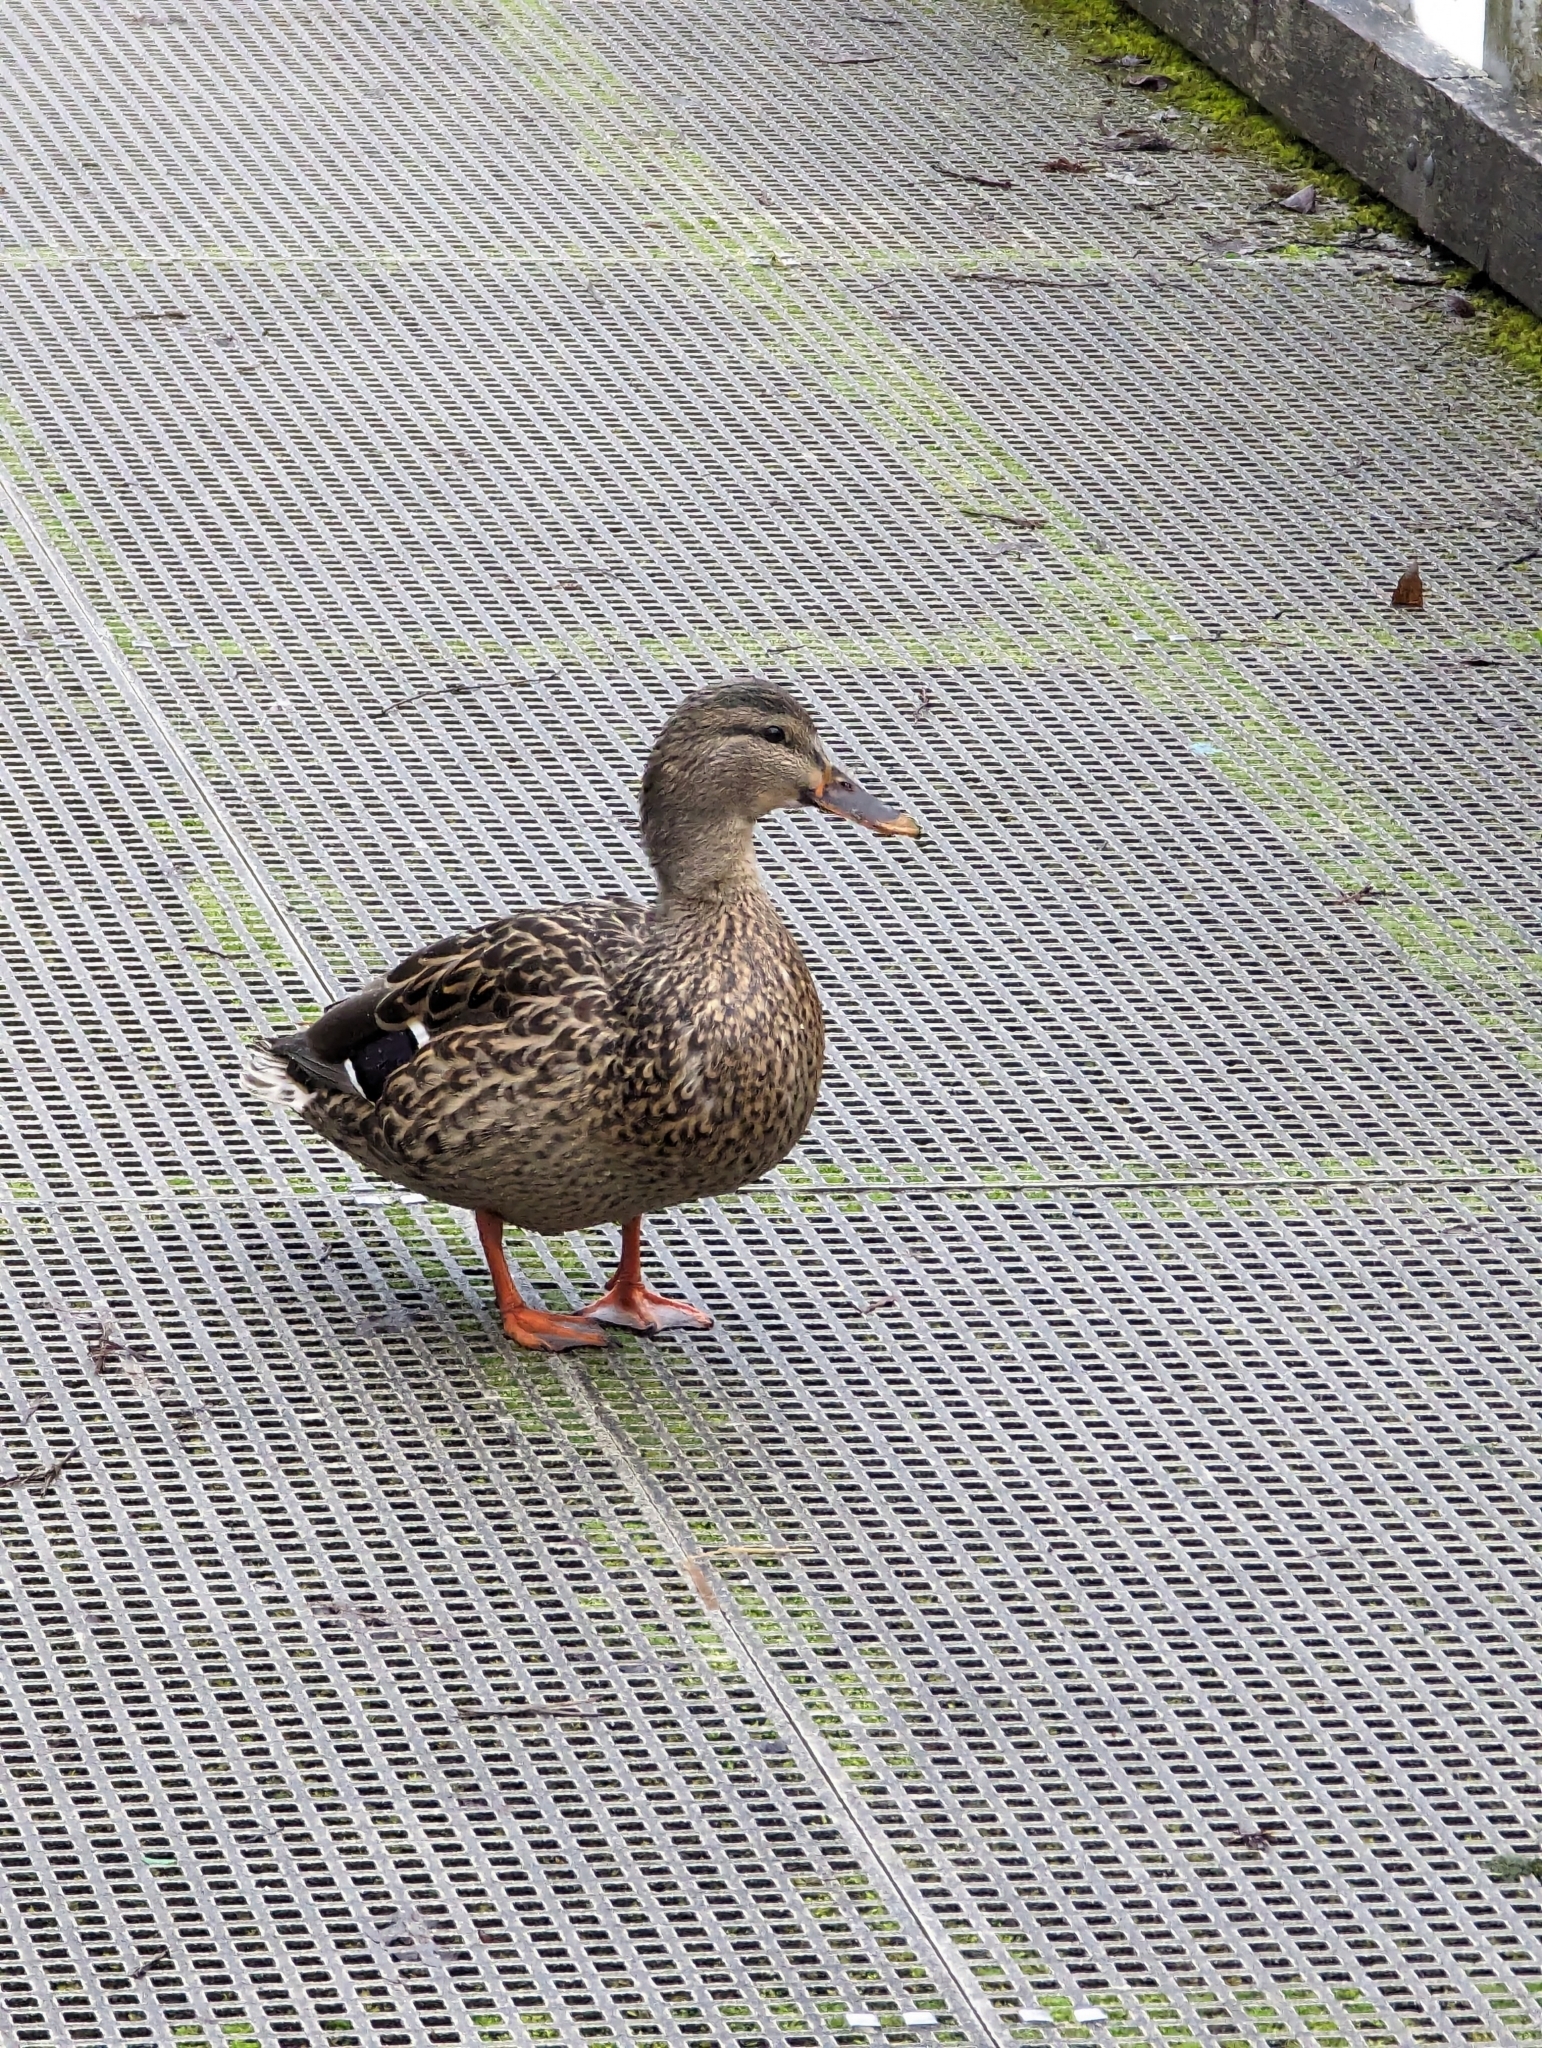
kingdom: Animalia
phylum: Chordata
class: Aves
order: Anseriformes
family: Anatidae
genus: Anas
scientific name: Anas platyrhynchos
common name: Mallard
